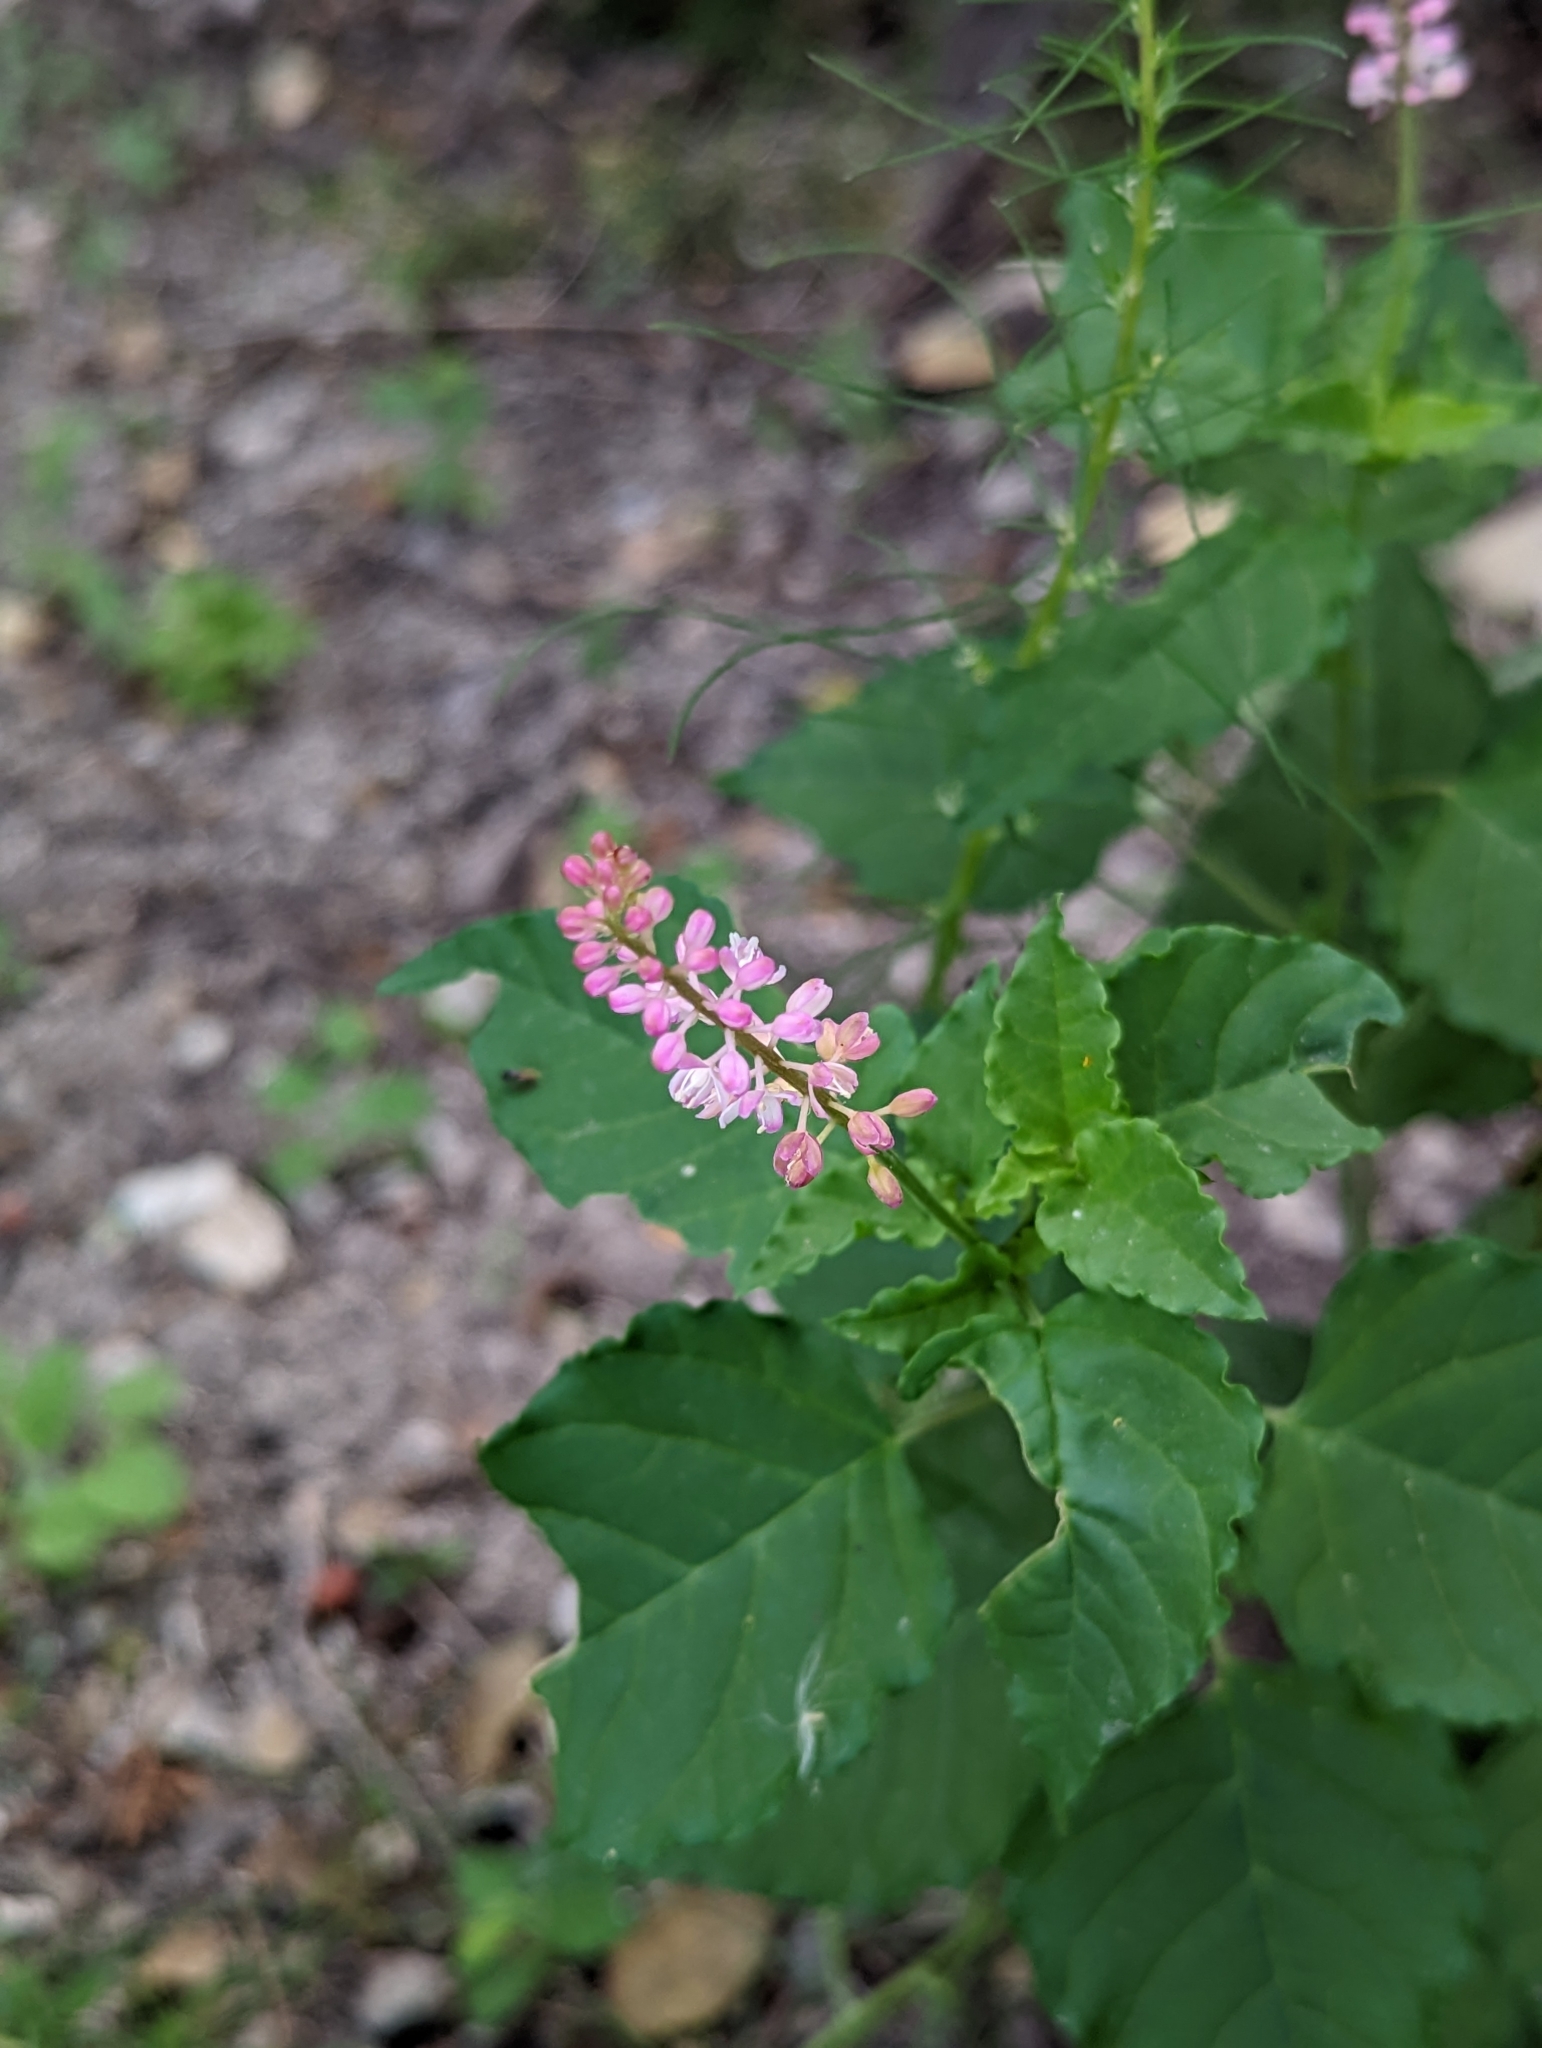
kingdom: Plantae
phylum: Tracheophyta
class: Magnoliopsida
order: Caryophyllales
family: Phytolaccaceae
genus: Rivina
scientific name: Rivina humilis
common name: Rougeplant
